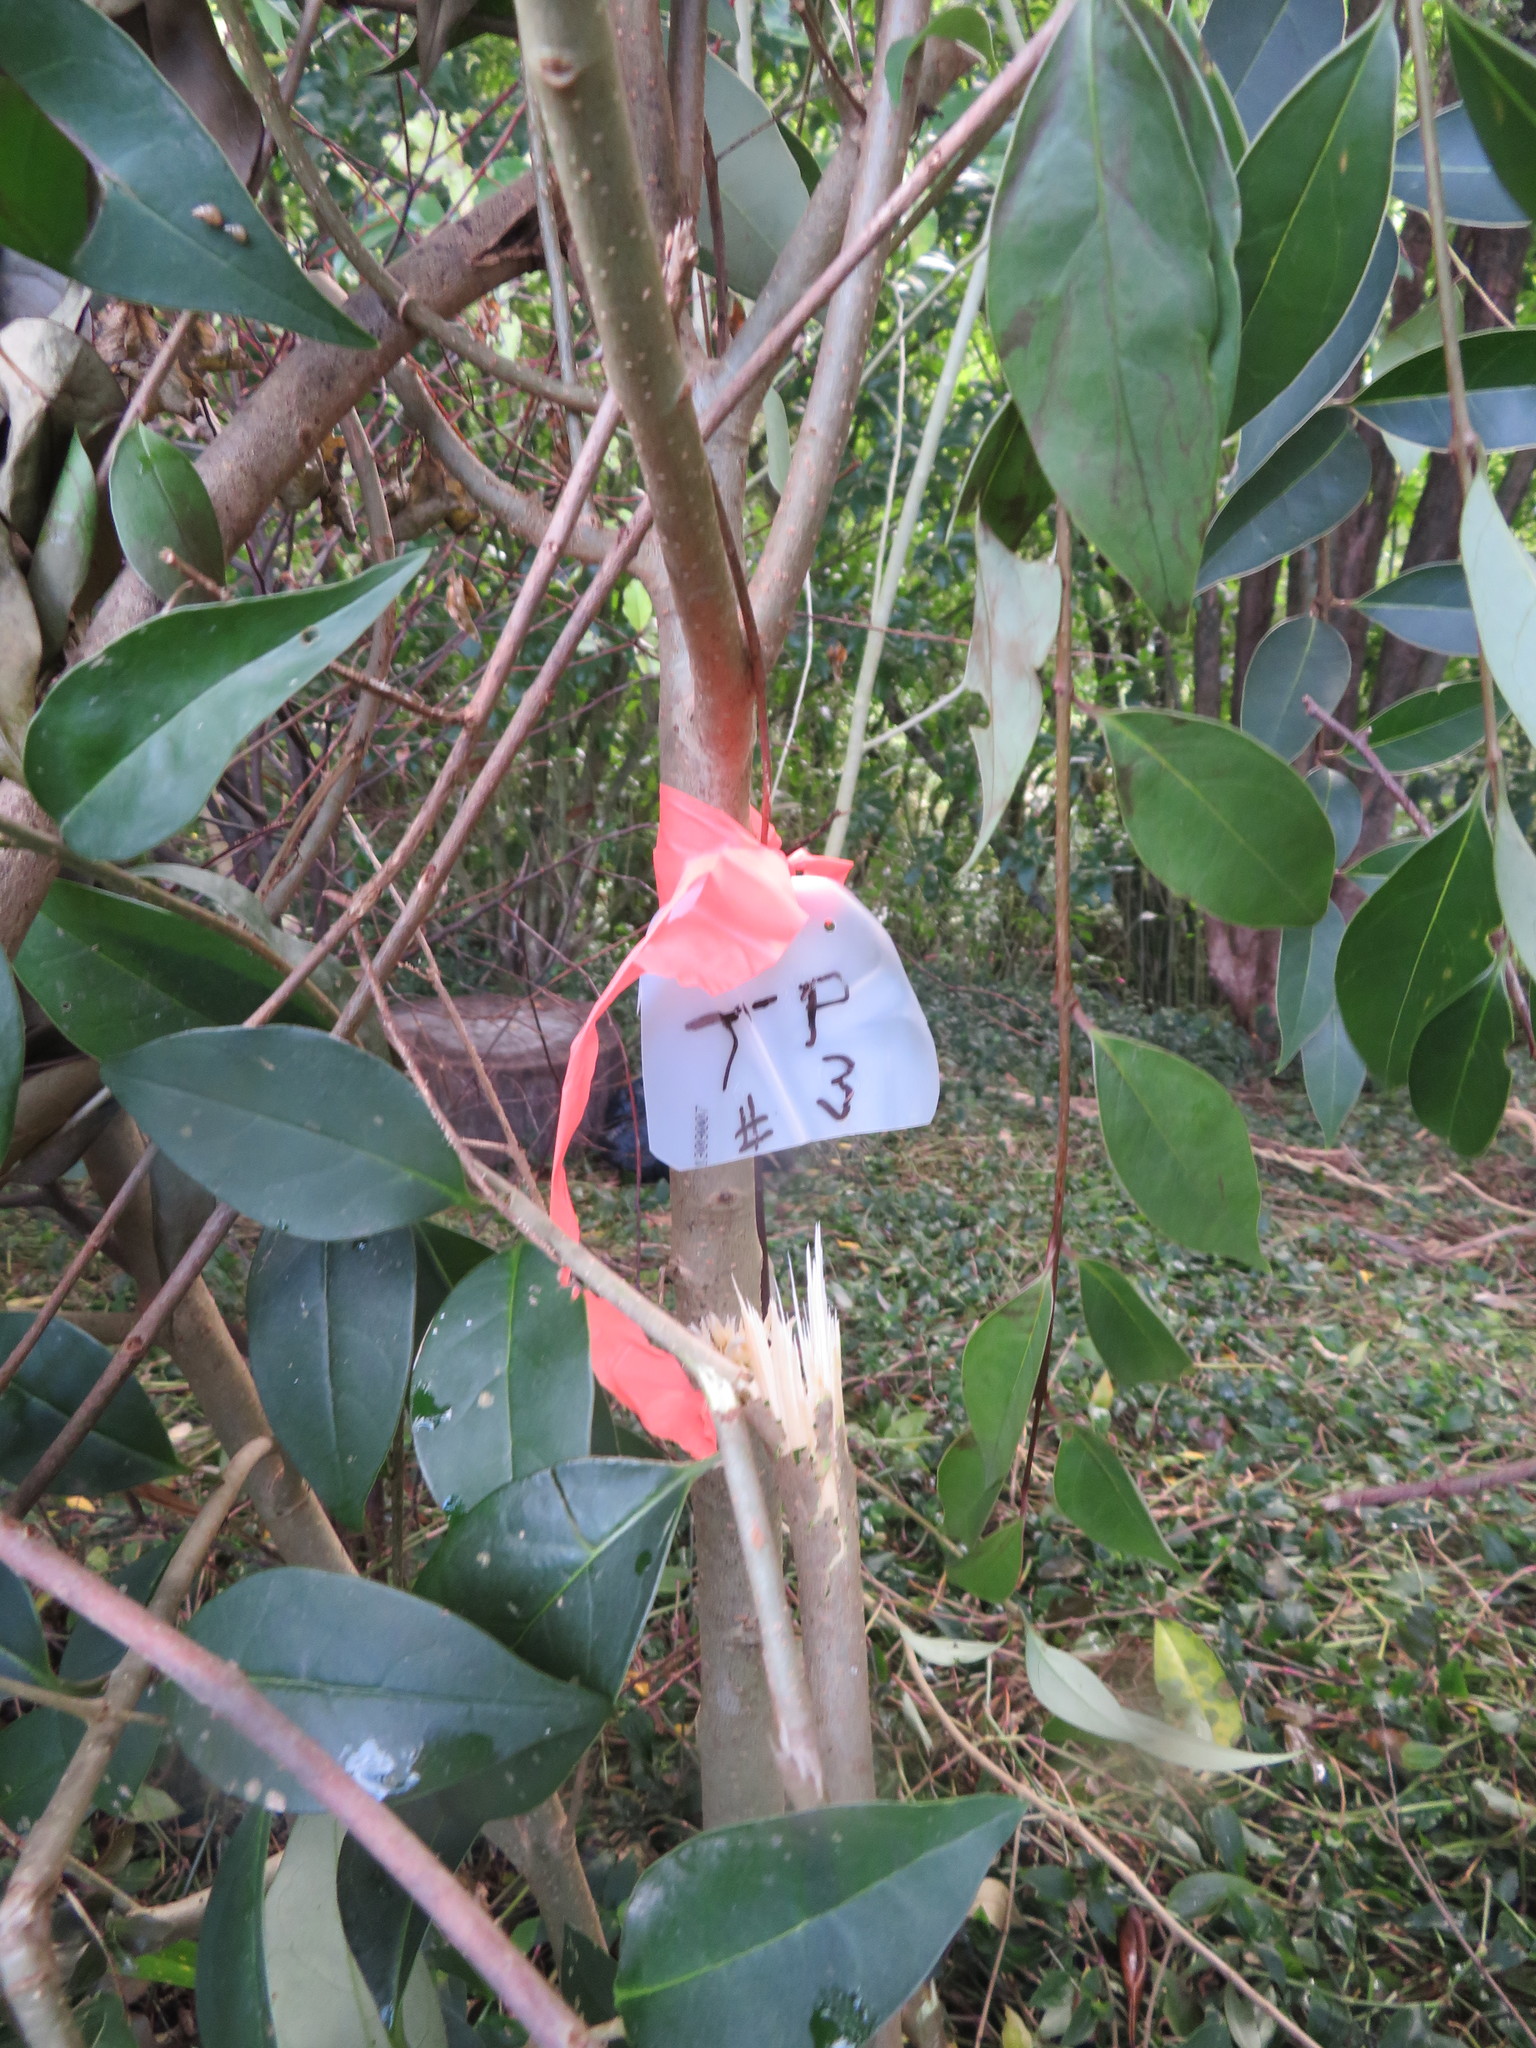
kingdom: Plantae
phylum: Tracheophyta
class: Magnoliopsida
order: Lamiales
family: Oleaceae
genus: Ligustrum
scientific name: Ligustrum lucidum
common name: Glossy privet
